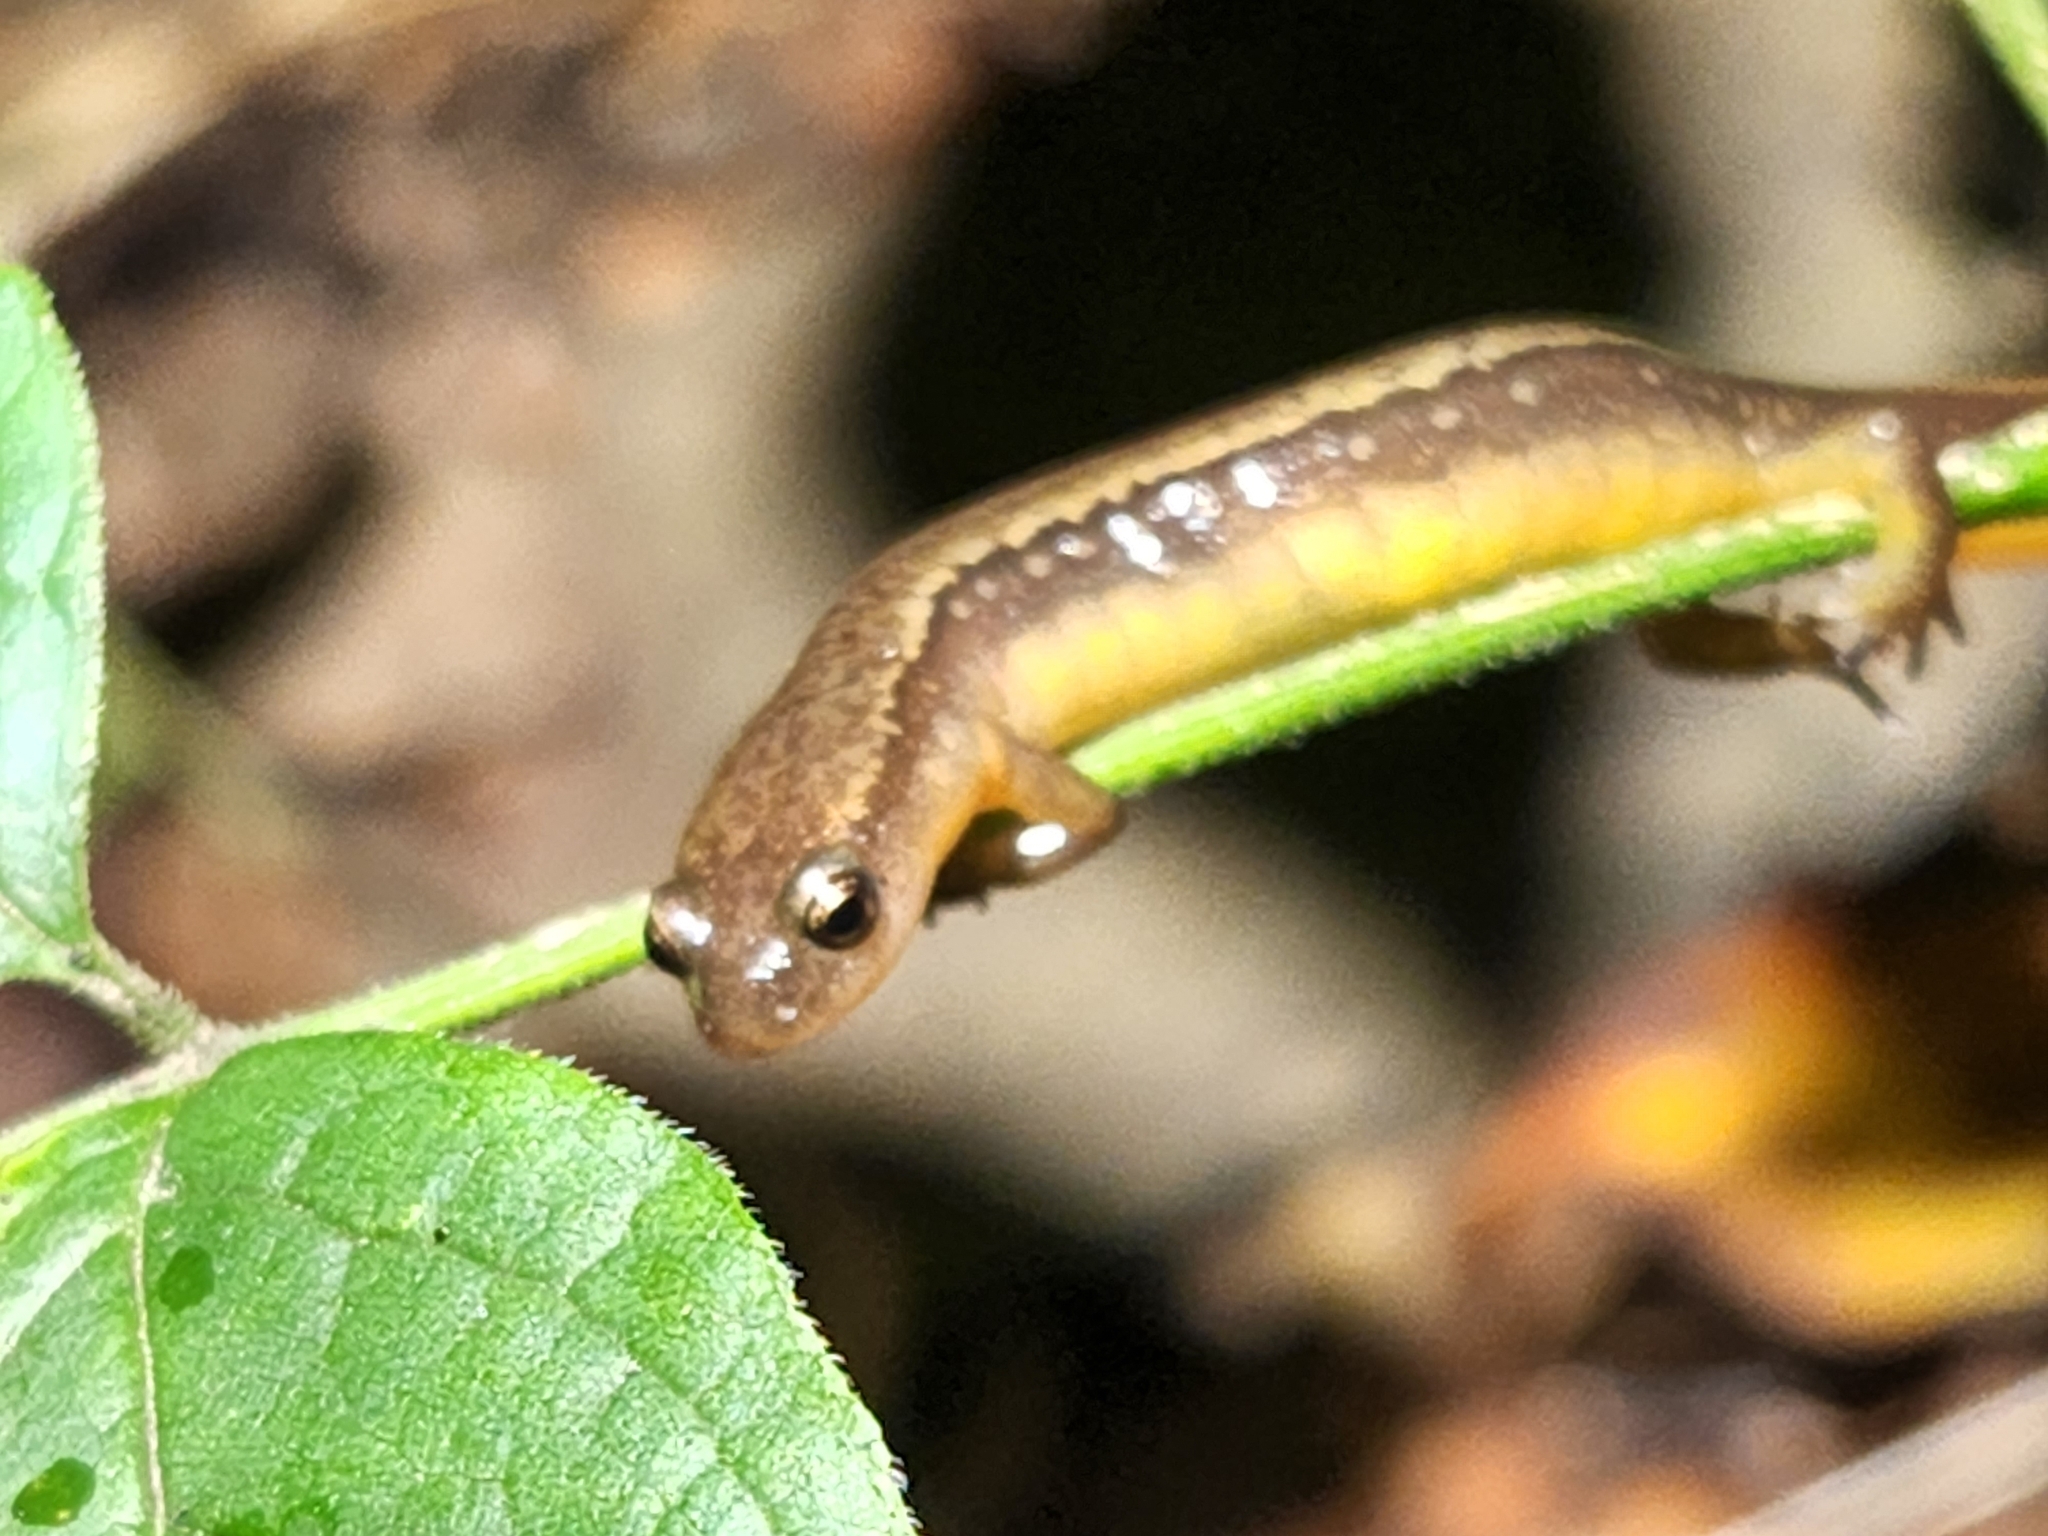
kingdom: Animalia
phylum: Chordata
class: Amphibia
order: Caudata
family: Plethodontidae
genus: Eurycea
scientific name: Eurycea bislineata
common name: Northern two-lined salamander
